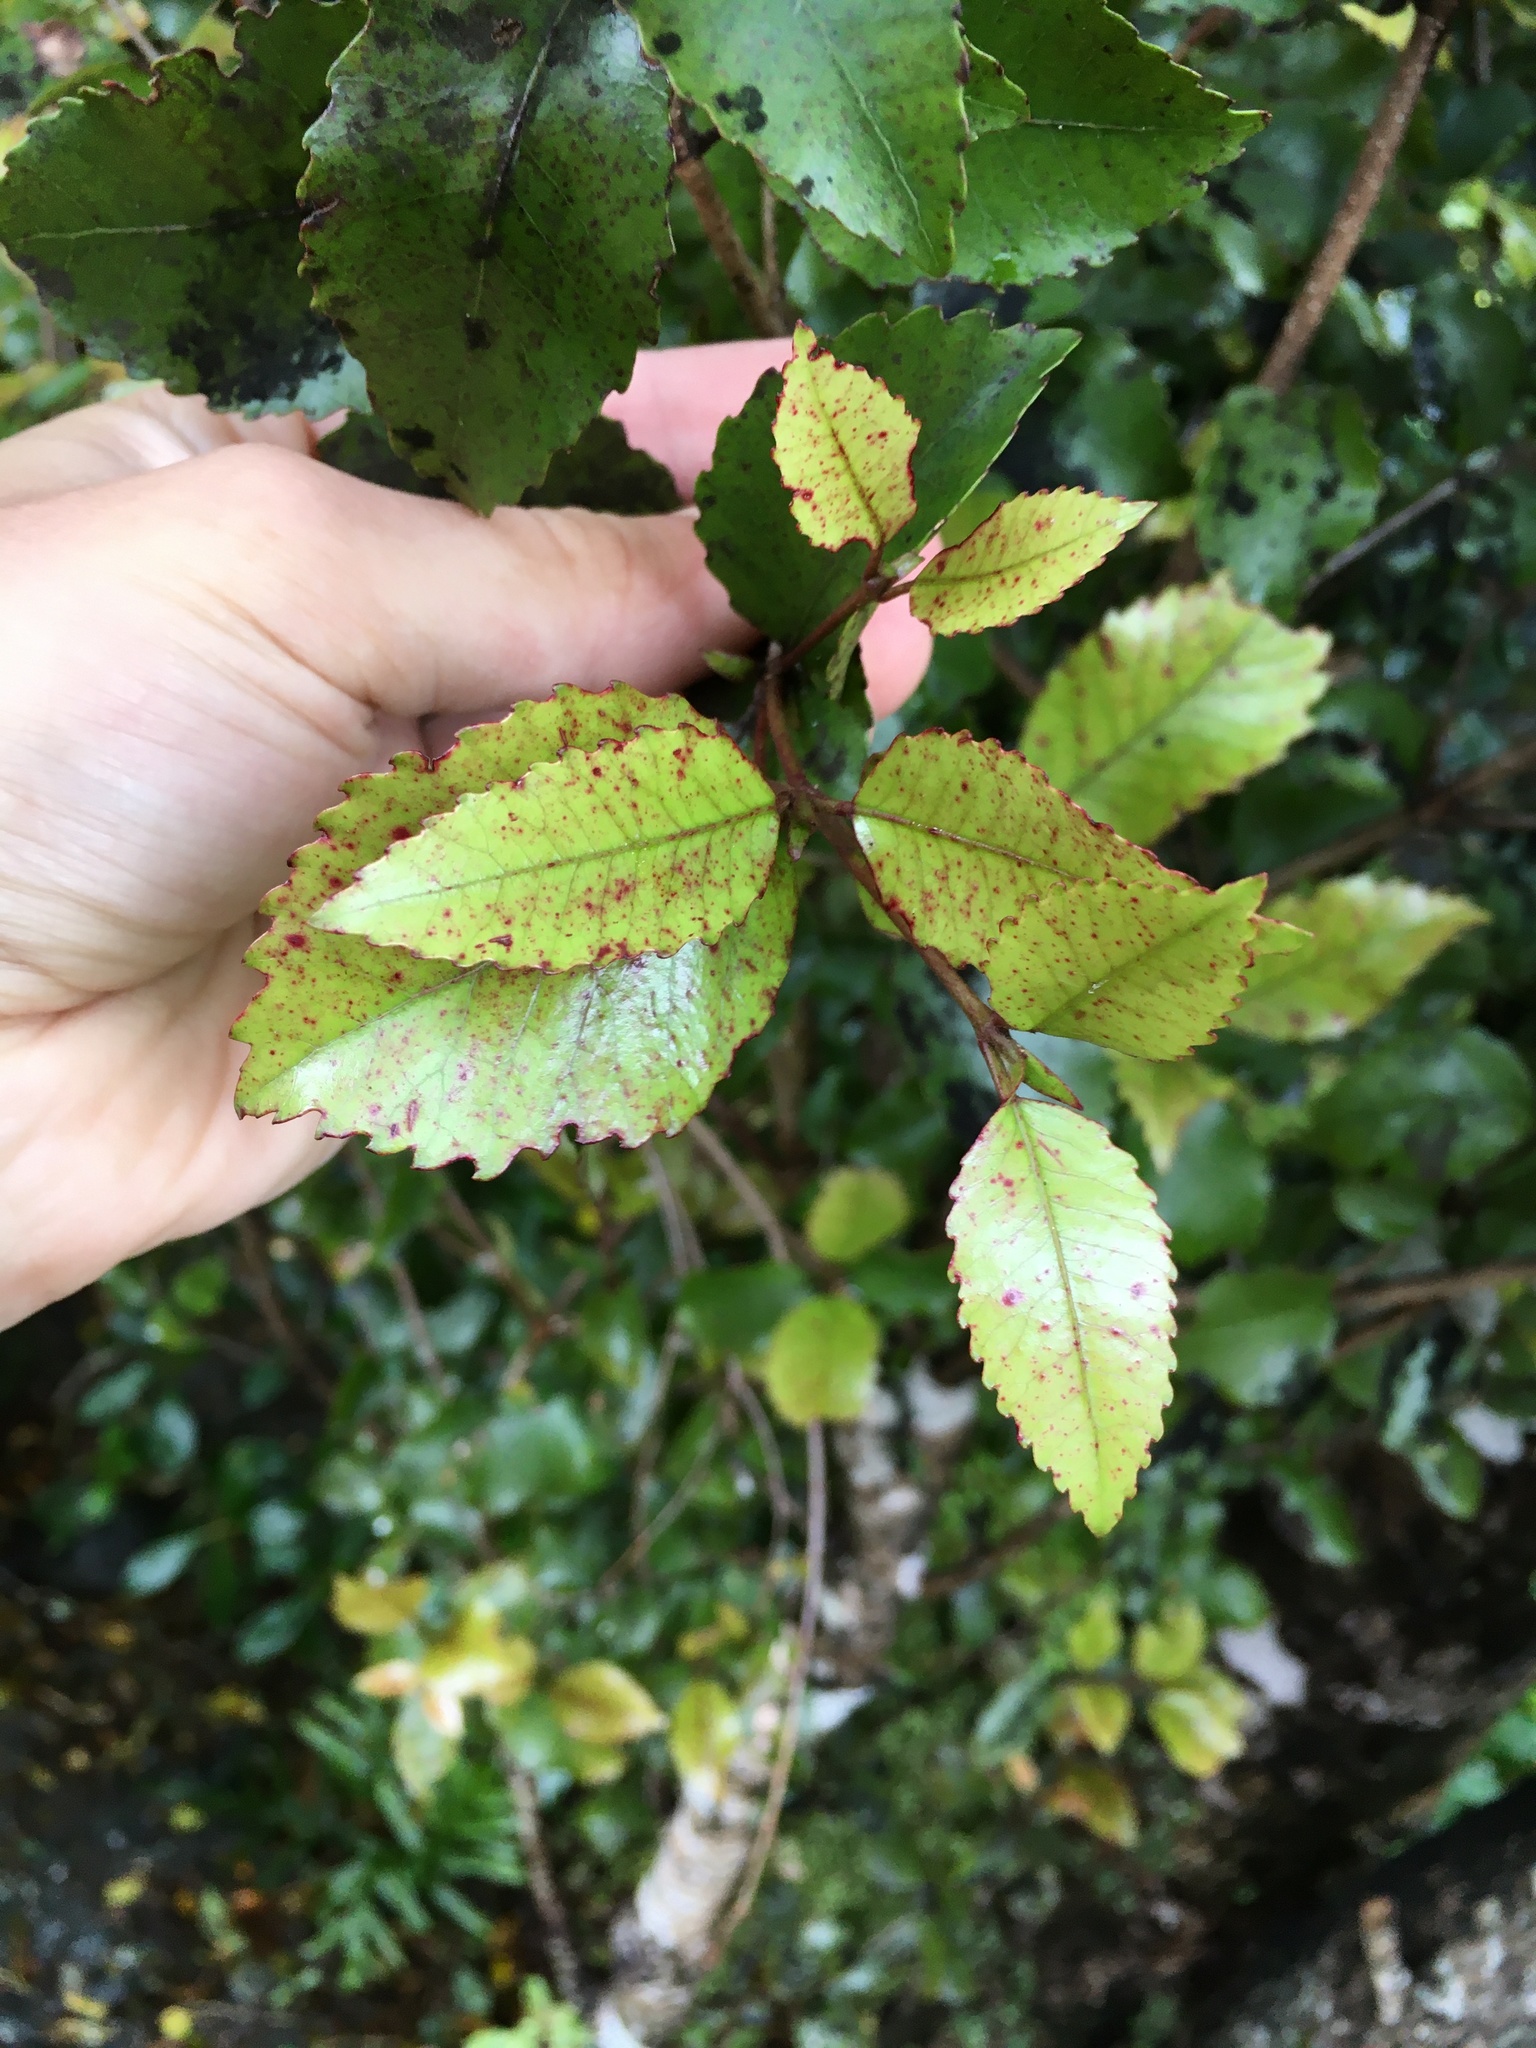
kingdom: Plantae
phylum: Tracheophyta
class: Magnoliopsida
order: Oxalidales
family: Cunoniaceae
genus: Pterophylla
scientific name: Pterophylla racemosa
